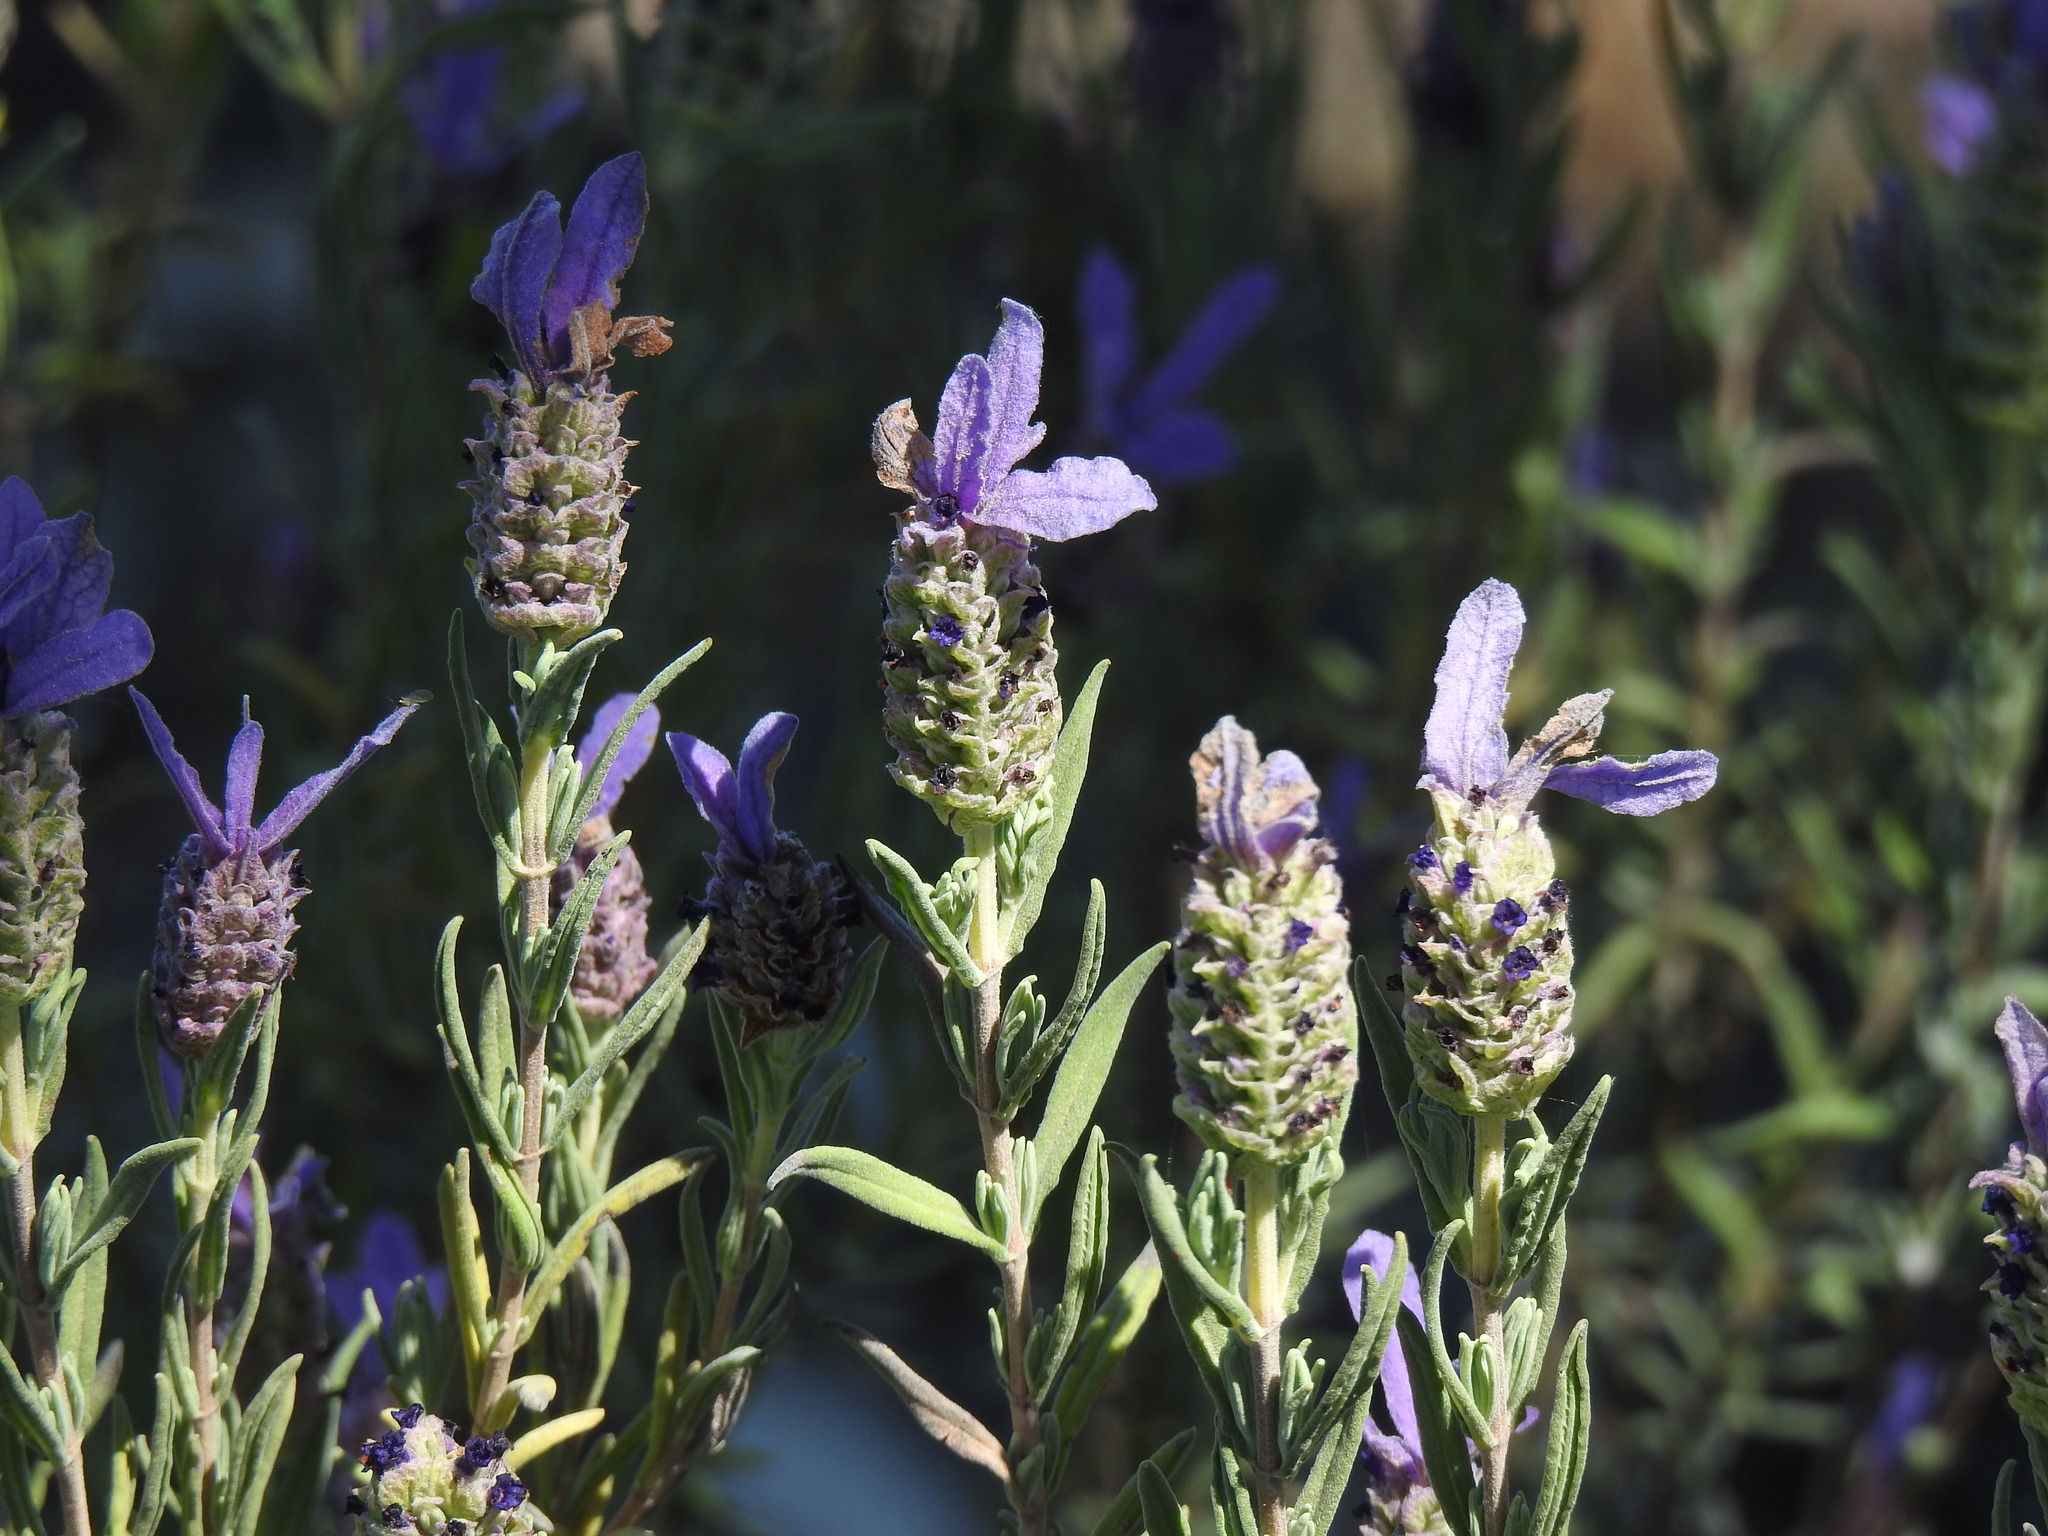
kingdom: Plantae
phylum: Tracheophyta
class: Magnoliopsida
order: Lamiales
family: Lamiaceae
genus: Lavandula
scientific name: Lavandula stoechas
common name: French lavender
